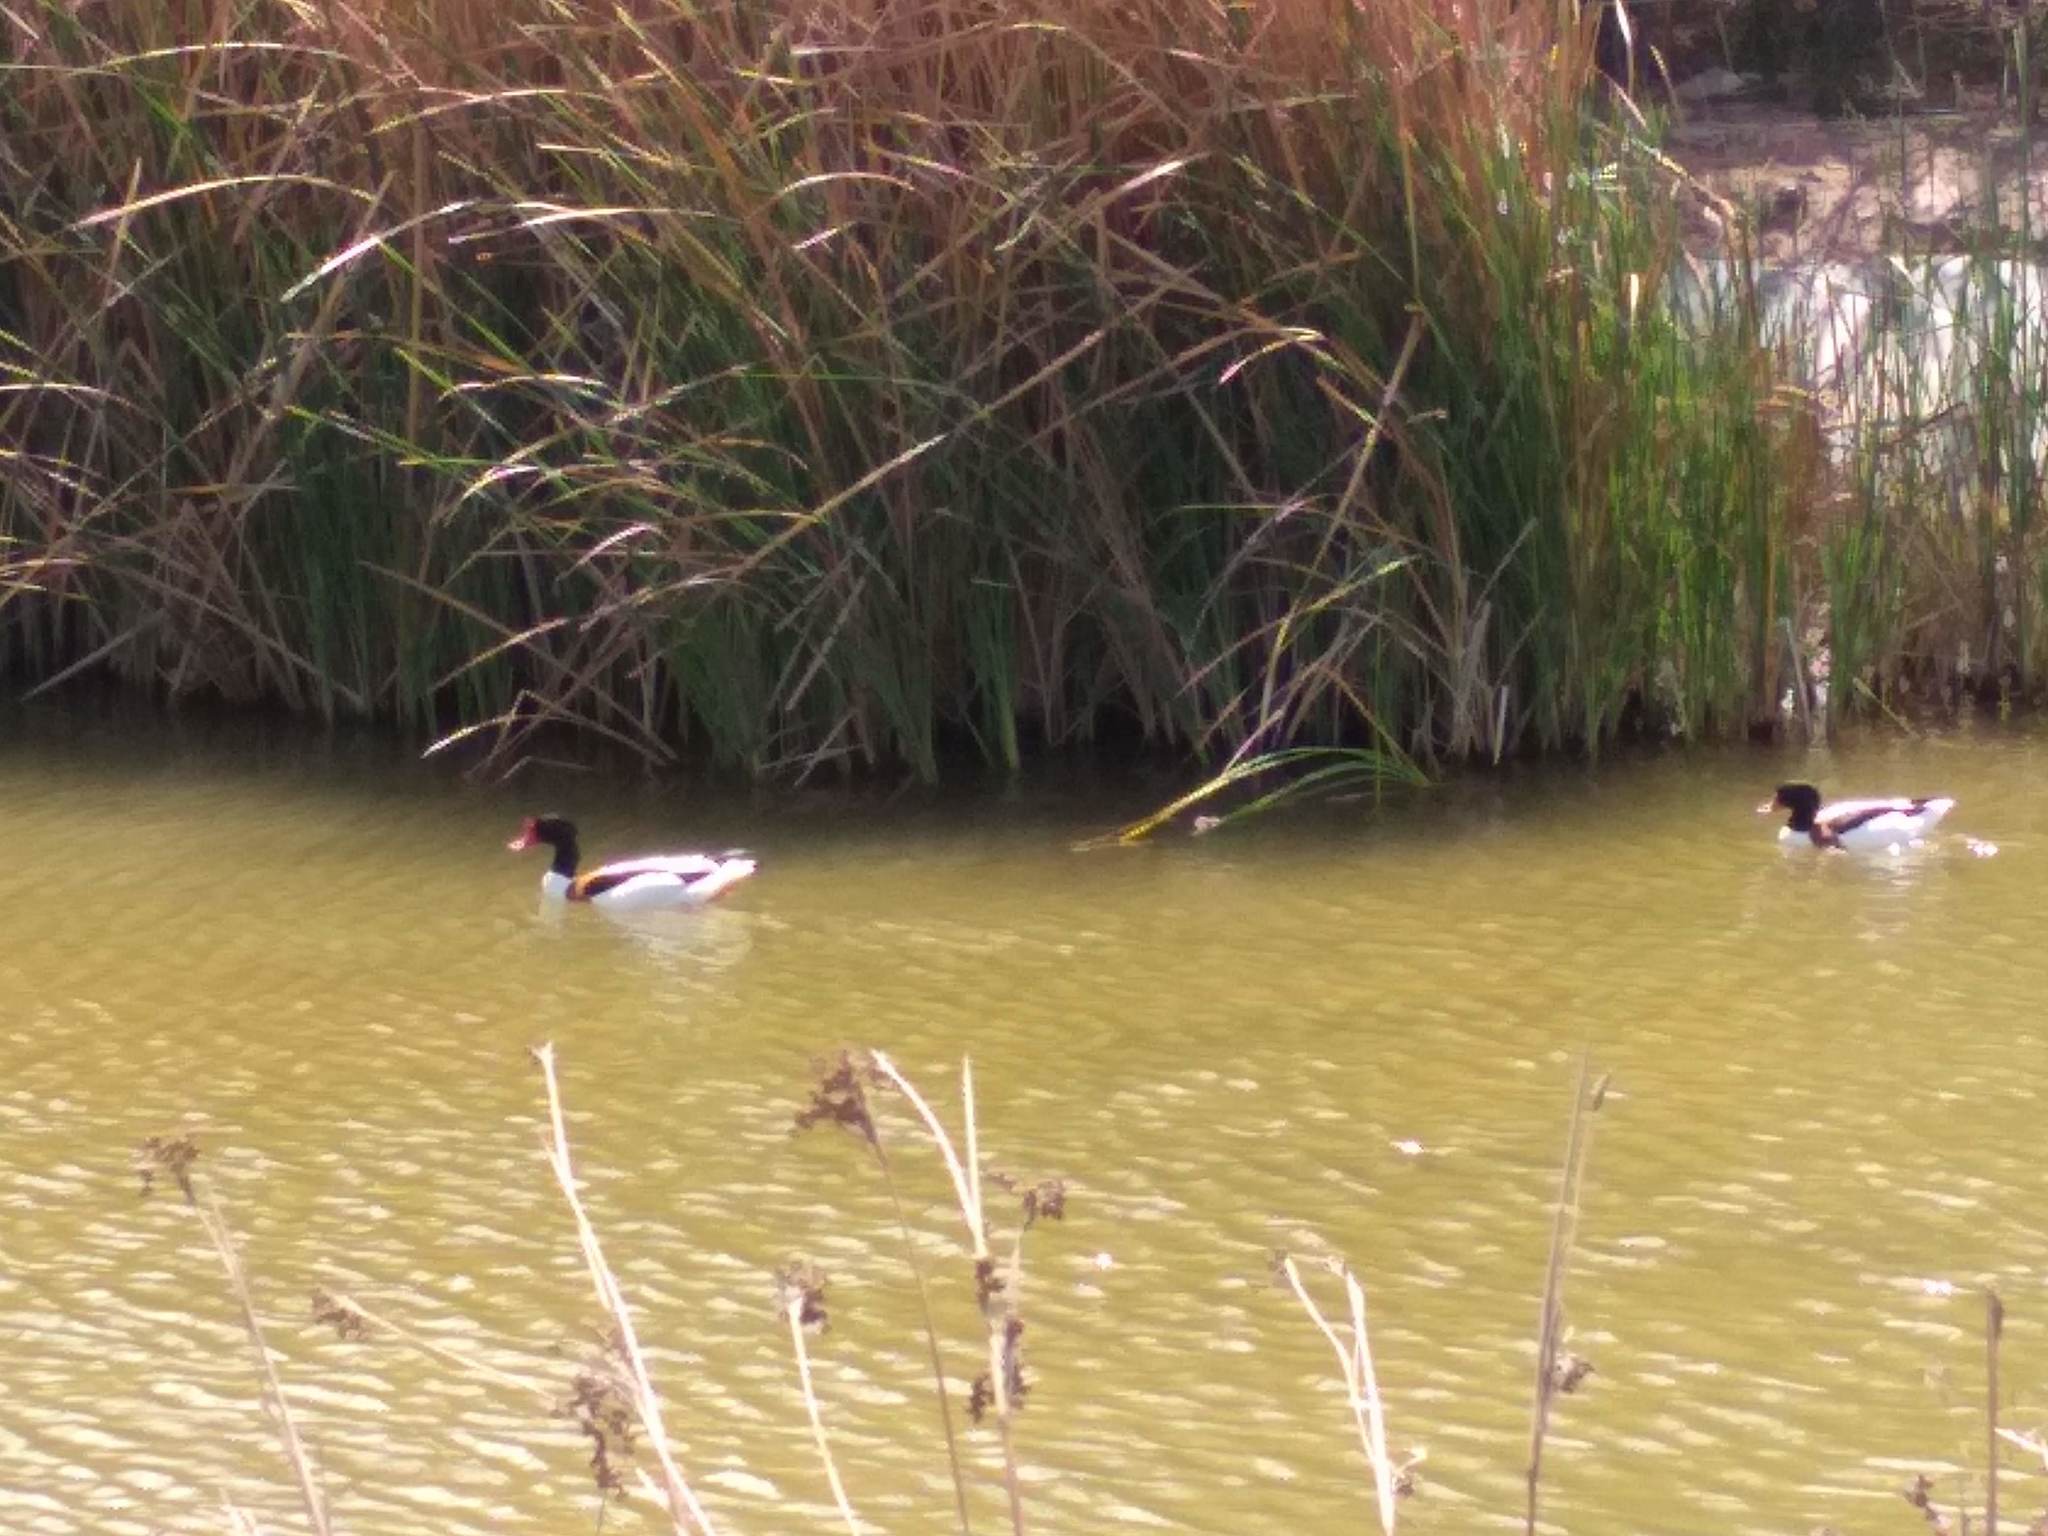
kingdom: Animalia
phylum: Chordata
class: Aves
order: Anseriformes
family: Anatidae
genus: Tadorna
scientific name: Tadorna tadorna
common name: Common shelduck
